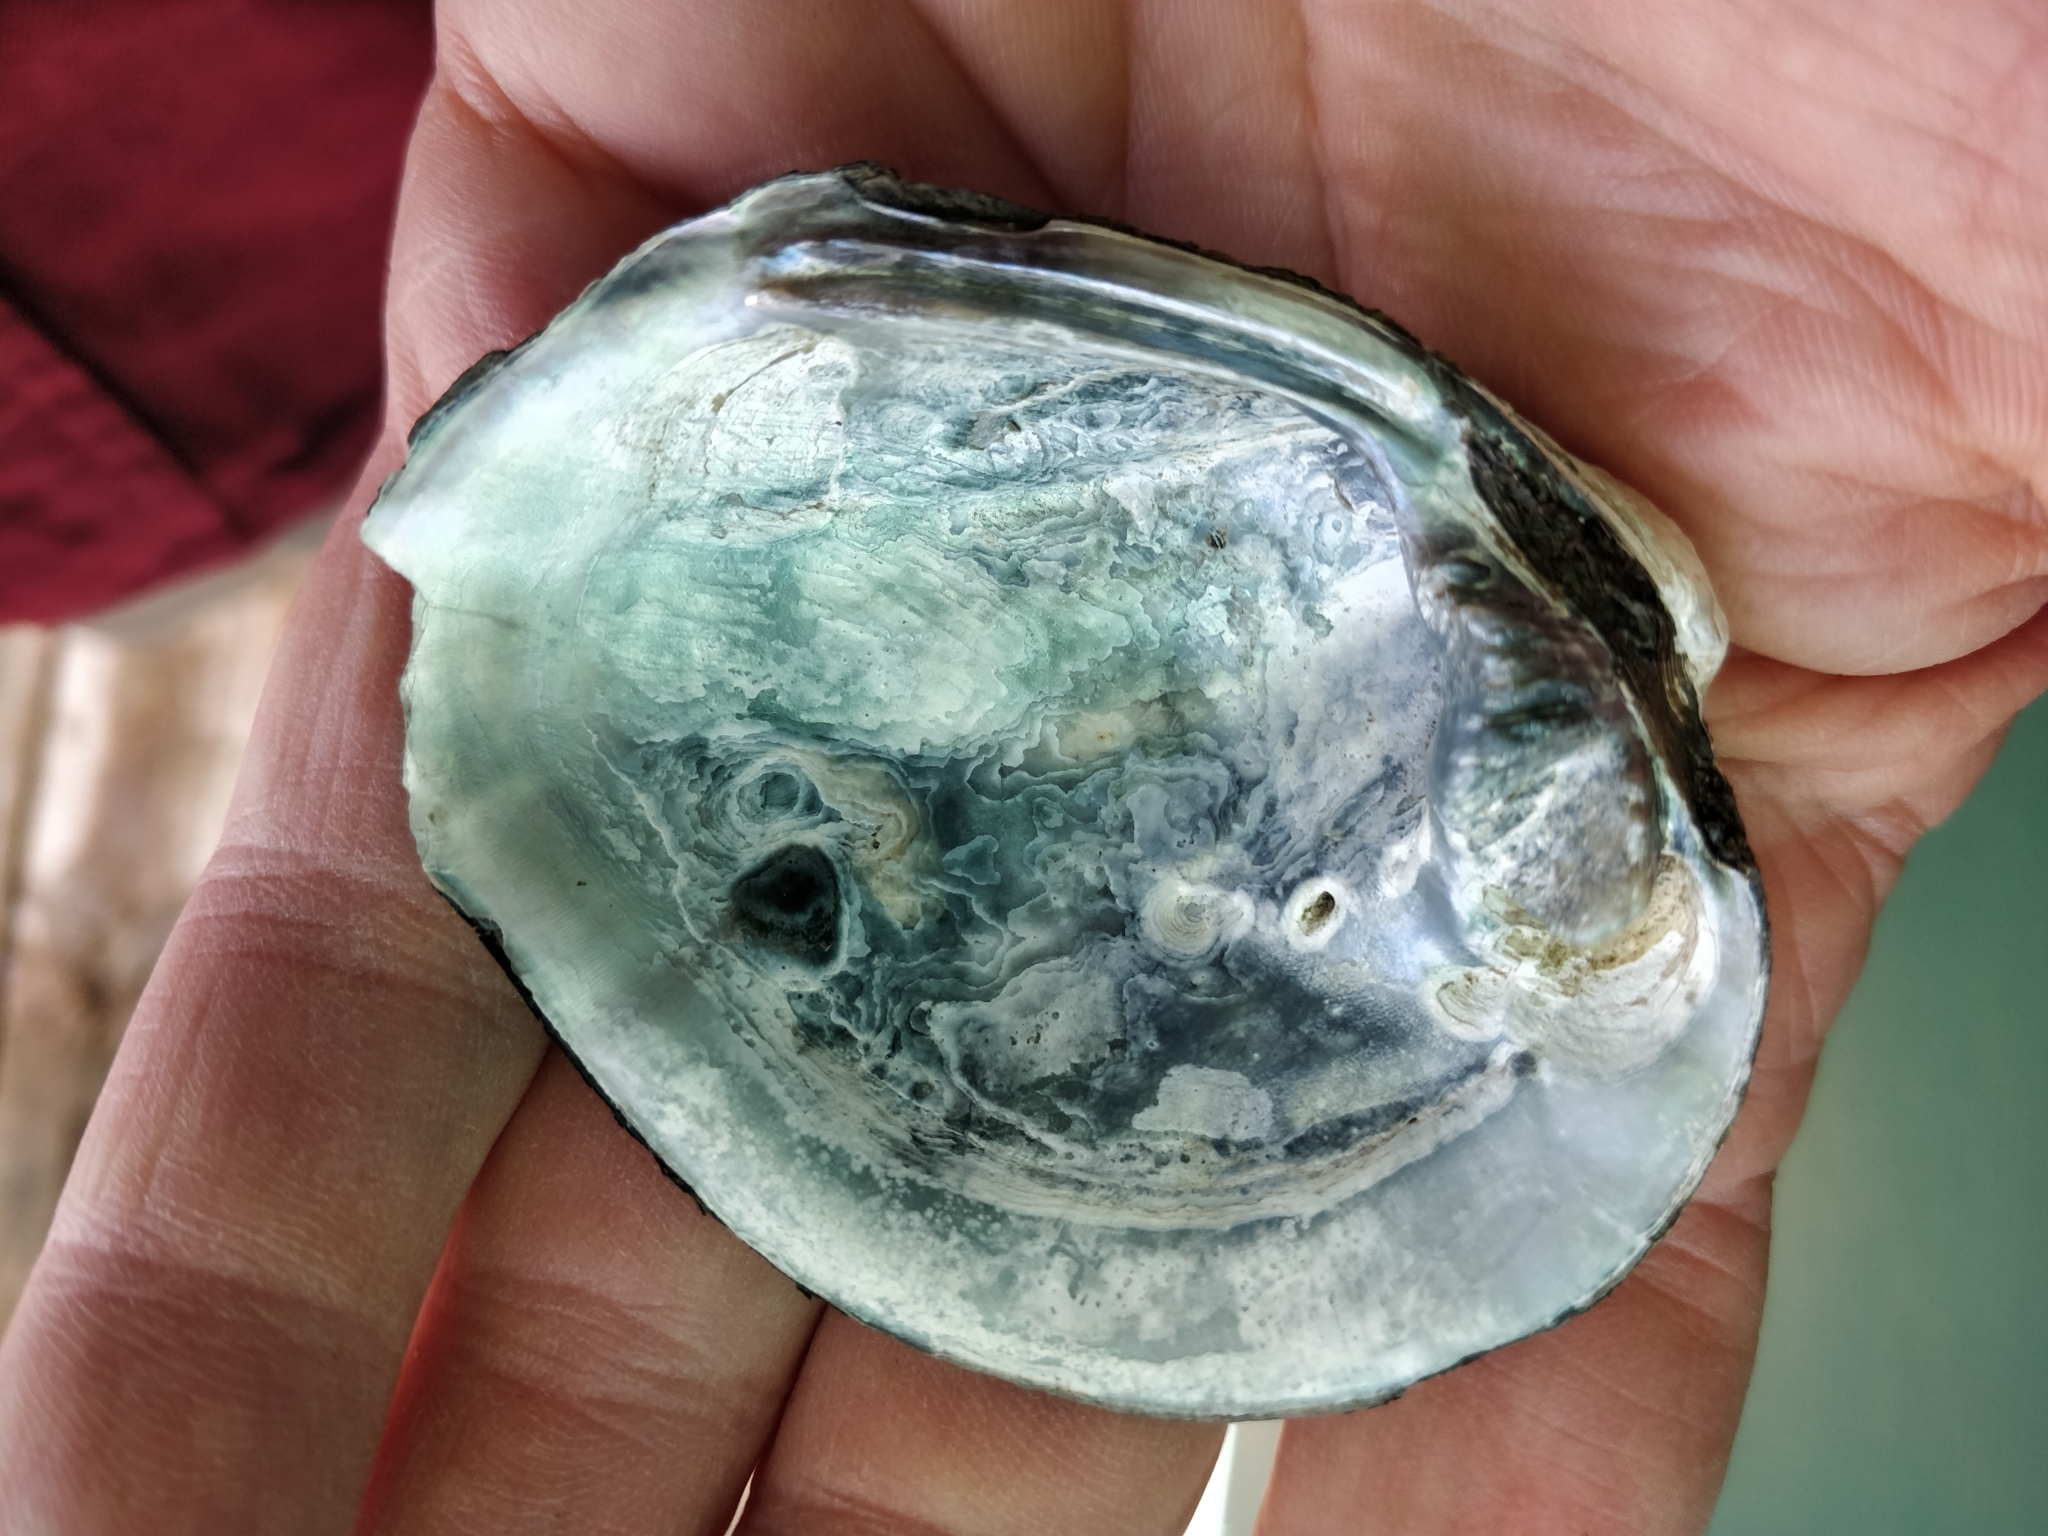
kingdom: Animalia
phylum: Mollusca
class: Bivalvia
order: Unionida
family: Unionidae
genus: Quadrula
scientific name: Quadrula quadrula
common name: Mapleleaf
